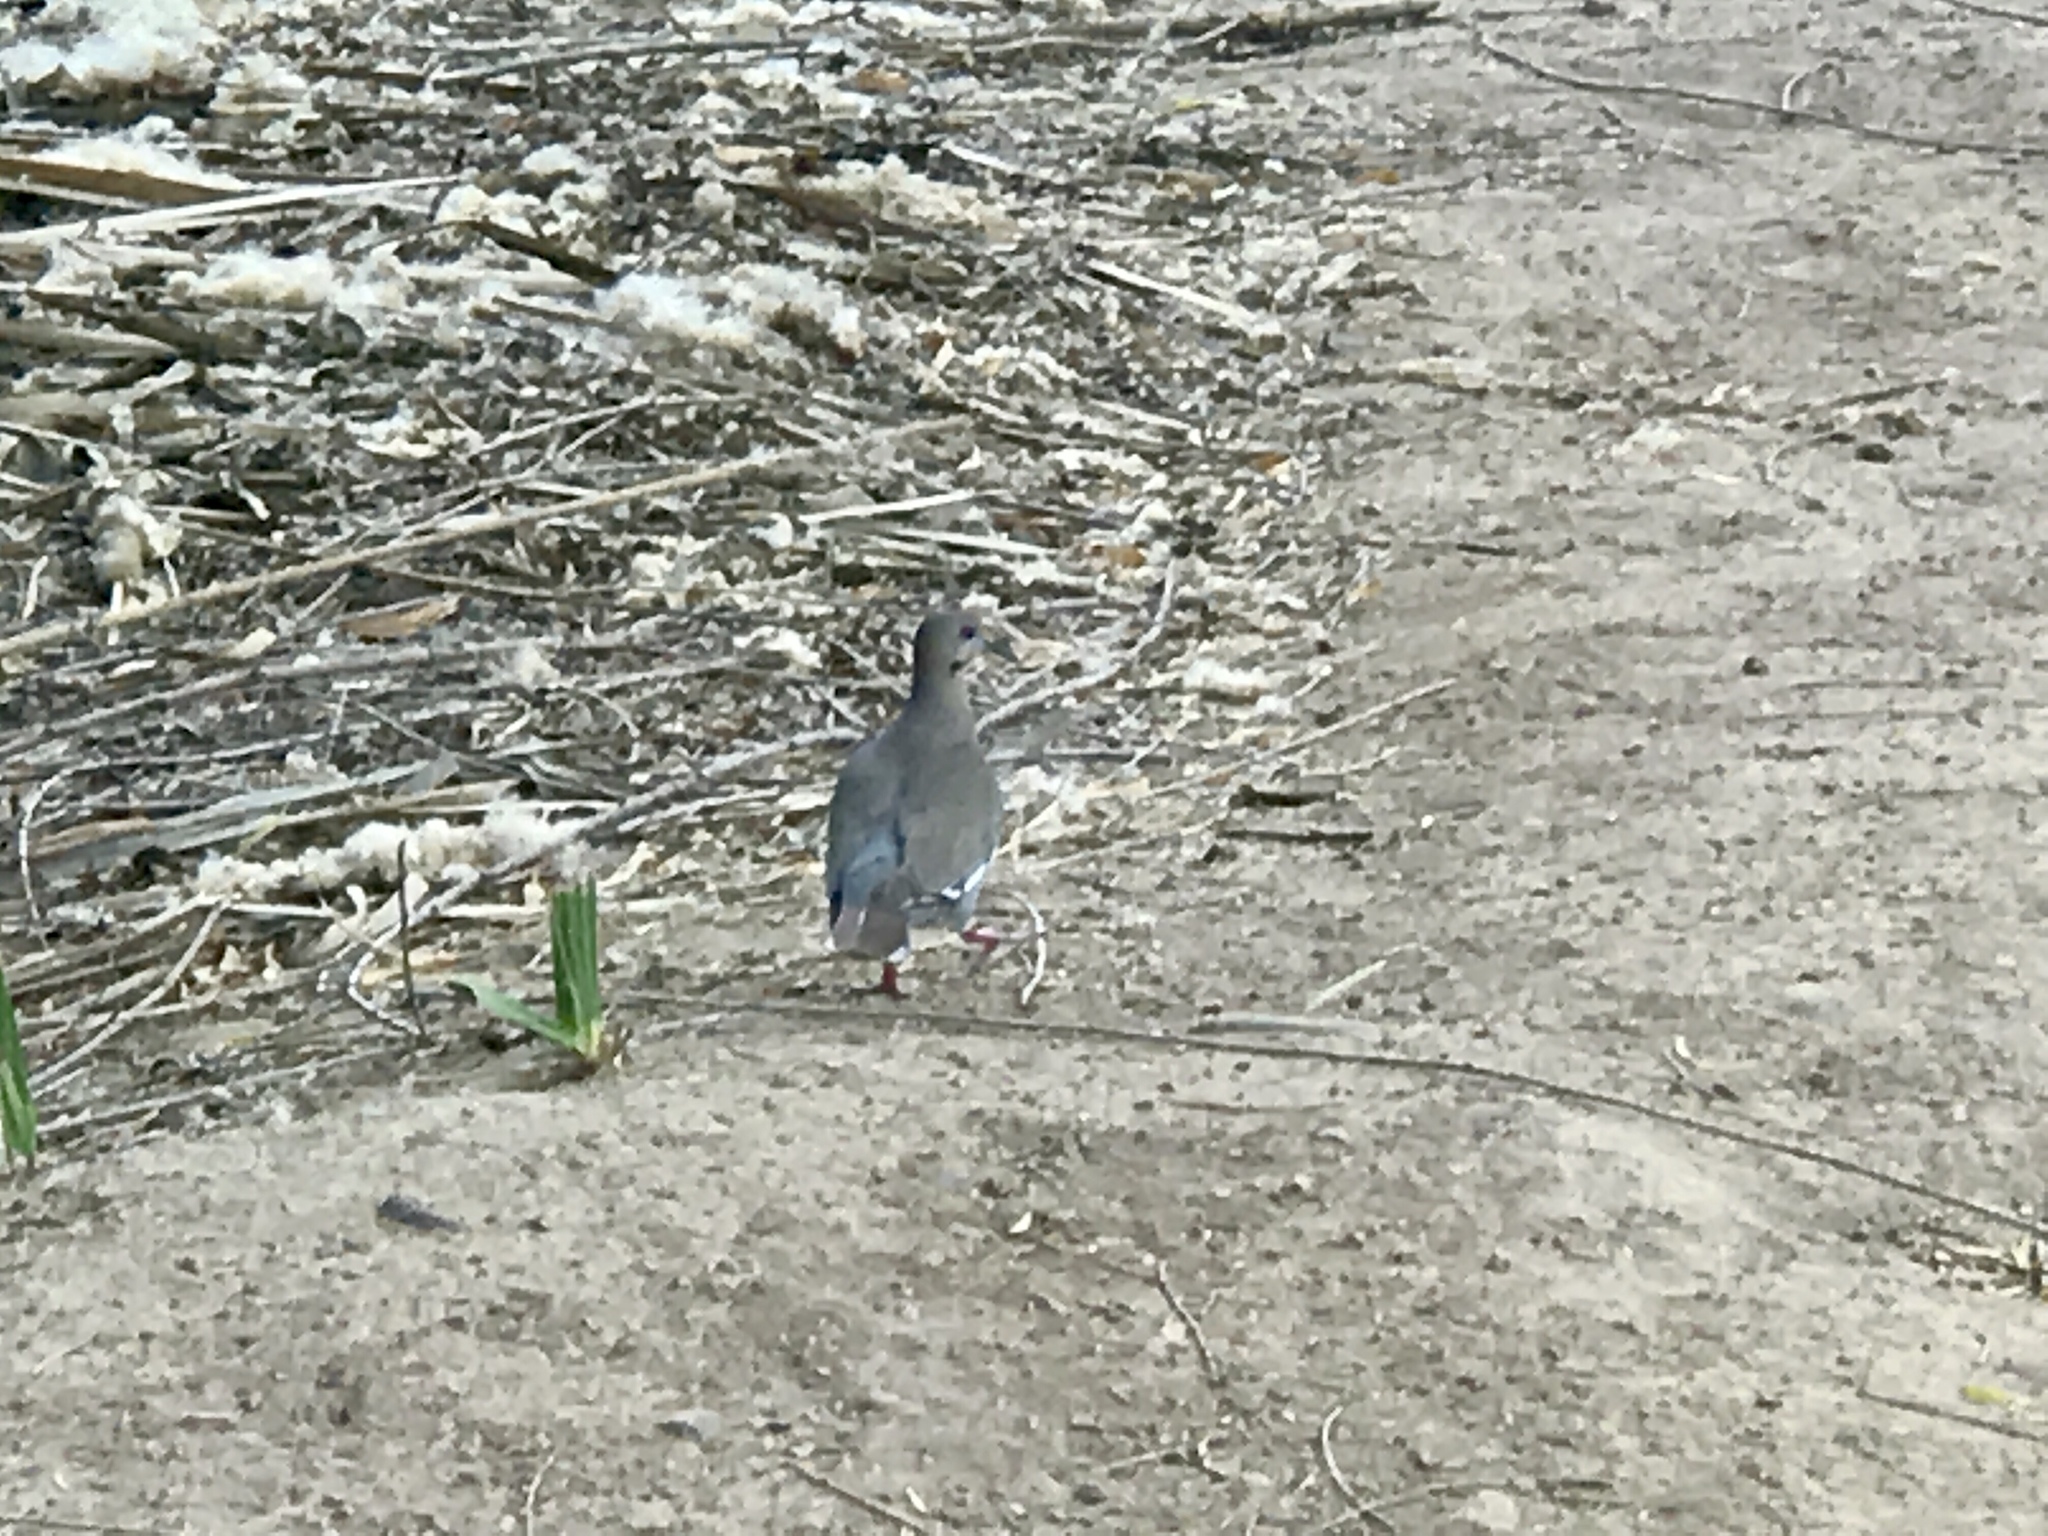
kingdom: Animalia
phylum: Chordata
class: Aves
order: Columbiformes
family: Columbidae
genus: Zenaida
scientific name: Zenaida asiatica
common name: White-winged dove
